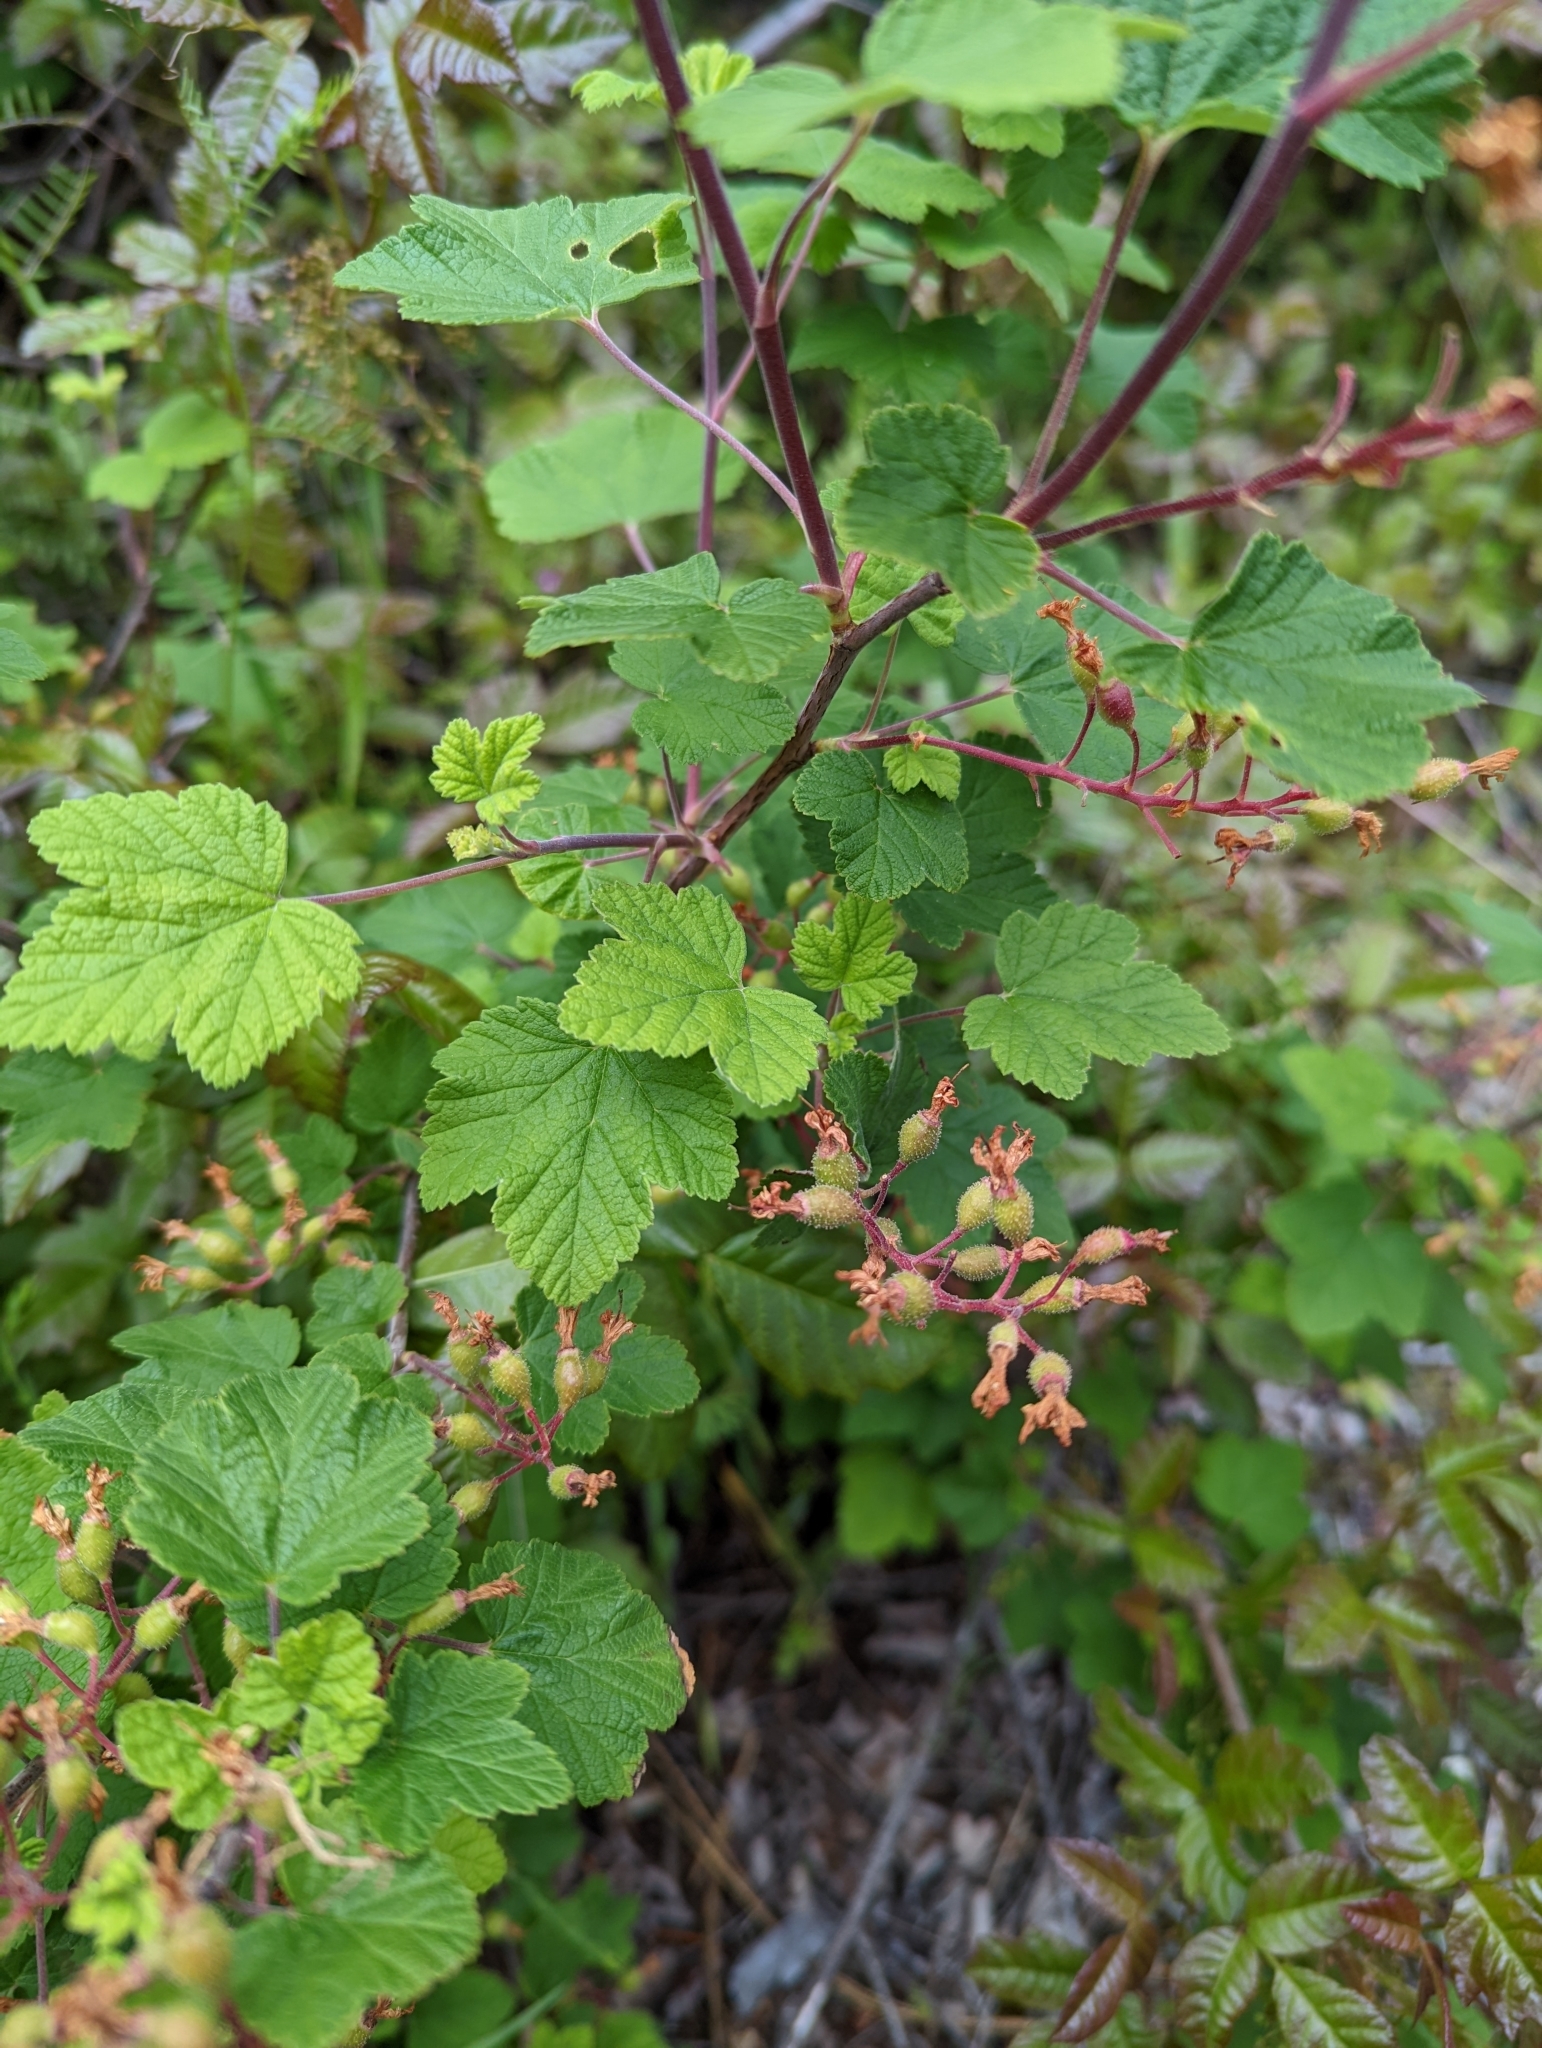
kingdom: Plantae
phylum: Tracheophyta
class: Magnoliopsida
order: Saxifragales
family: Grossulariaceae
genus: Ribes
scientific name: Ribes sanguineum
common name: Flowering currant
